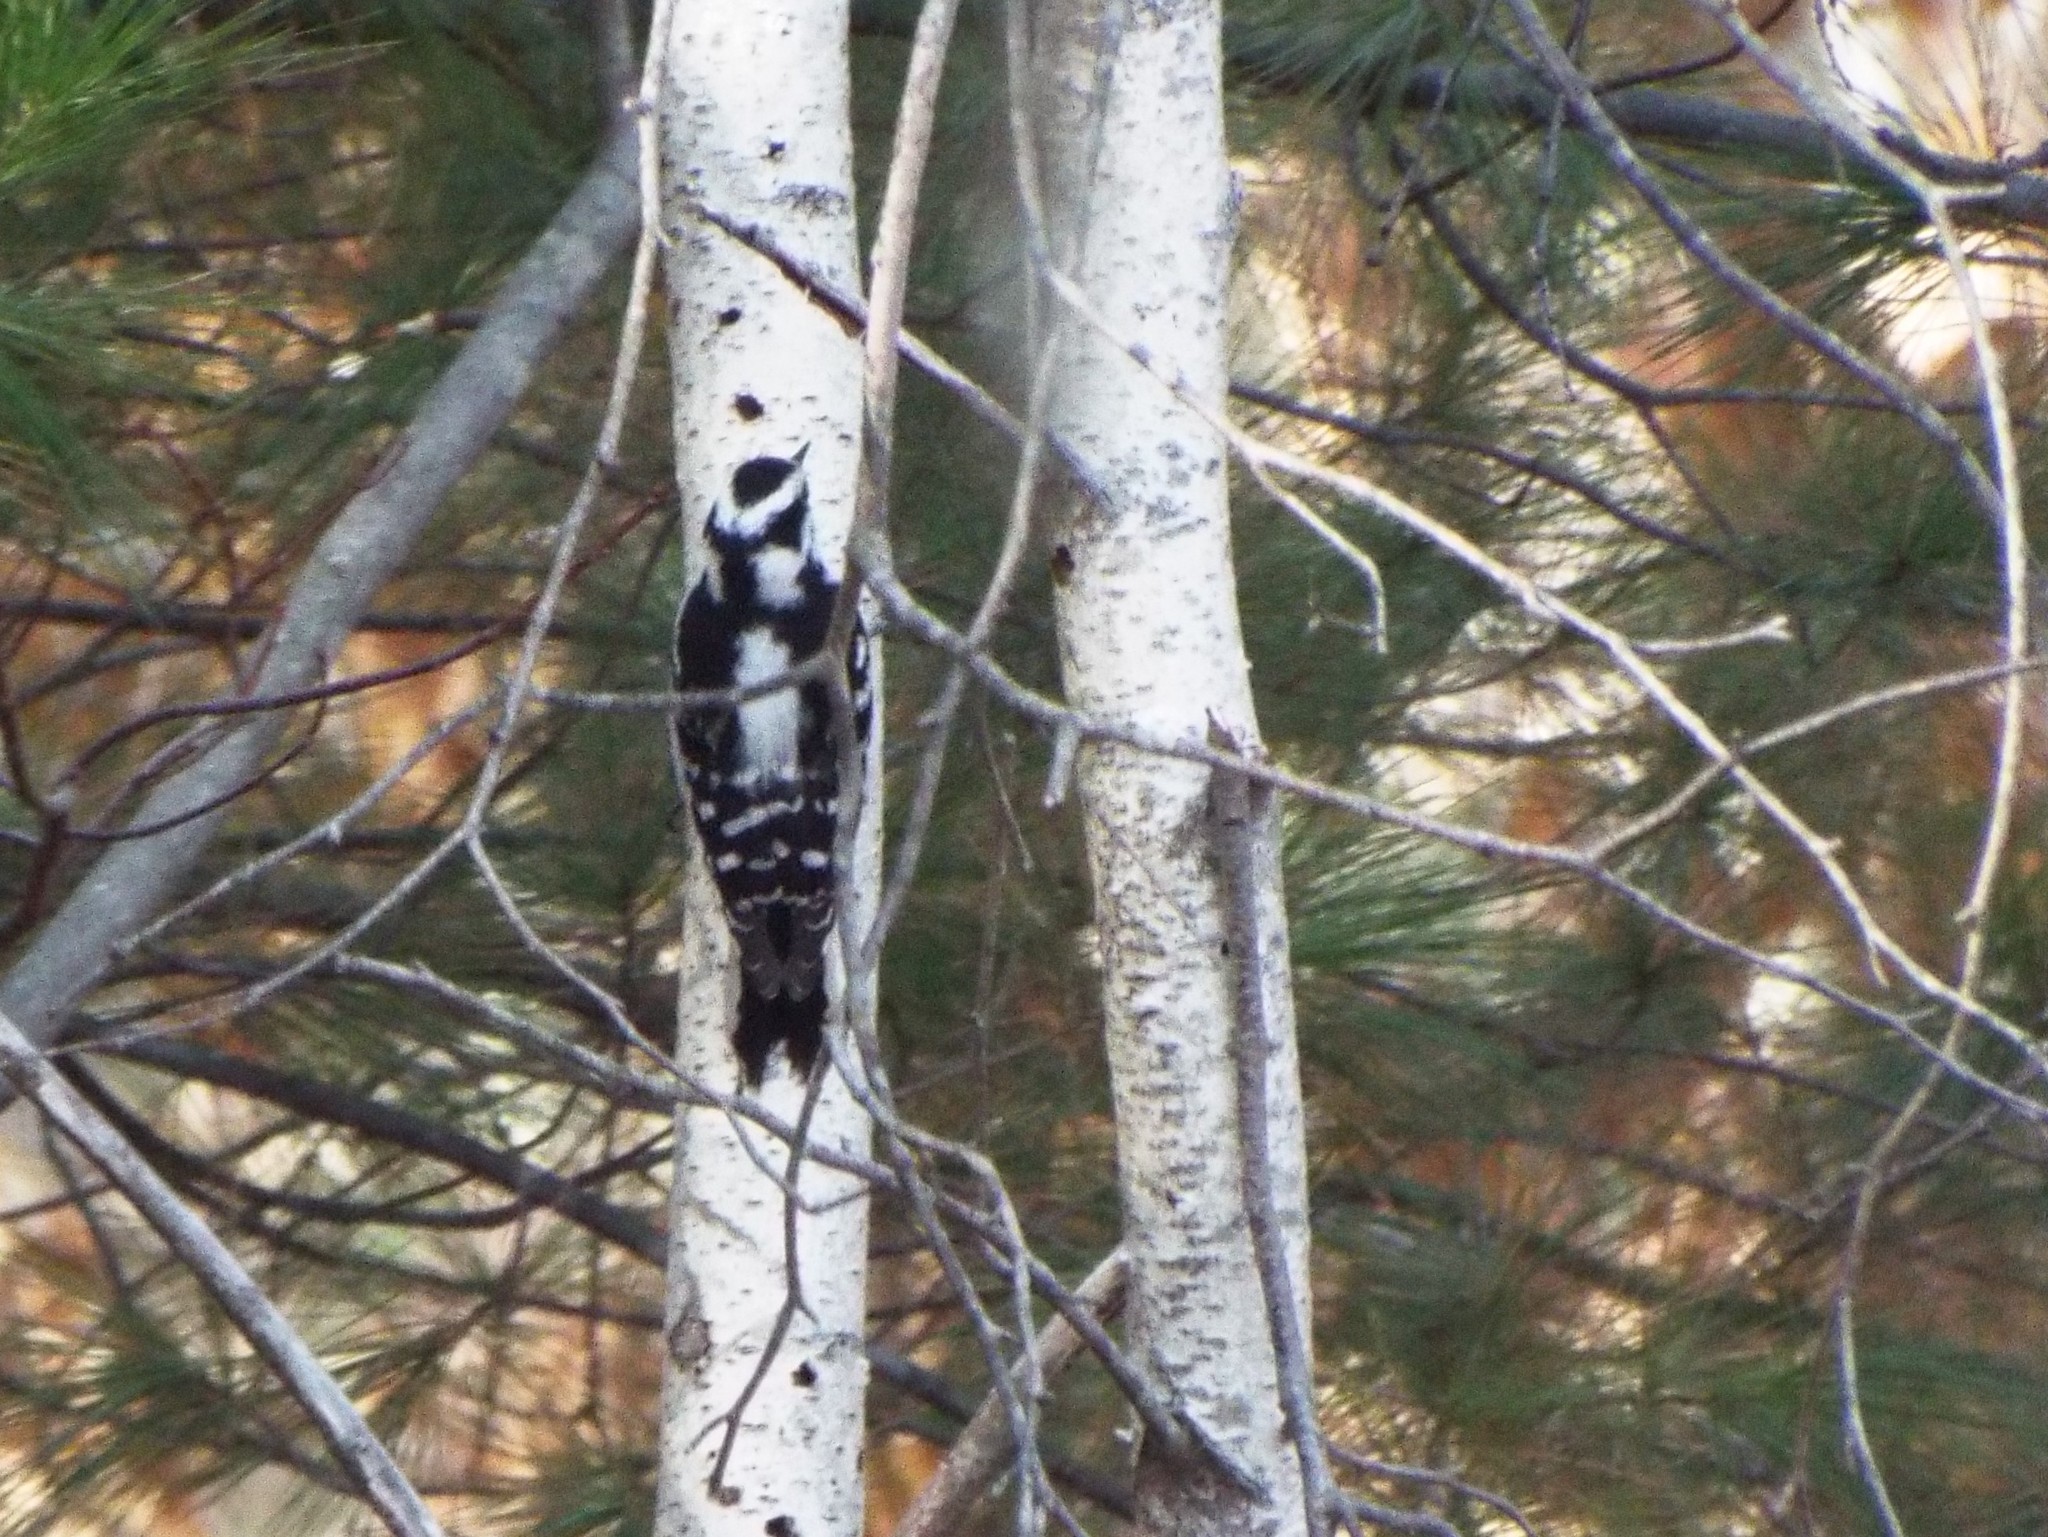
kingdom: Animalia
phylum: Chordata
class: Aves
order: Piciformes
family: Picidae
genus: Dryobates
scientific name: Dryobates pubescens
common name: Downy woodpecker
